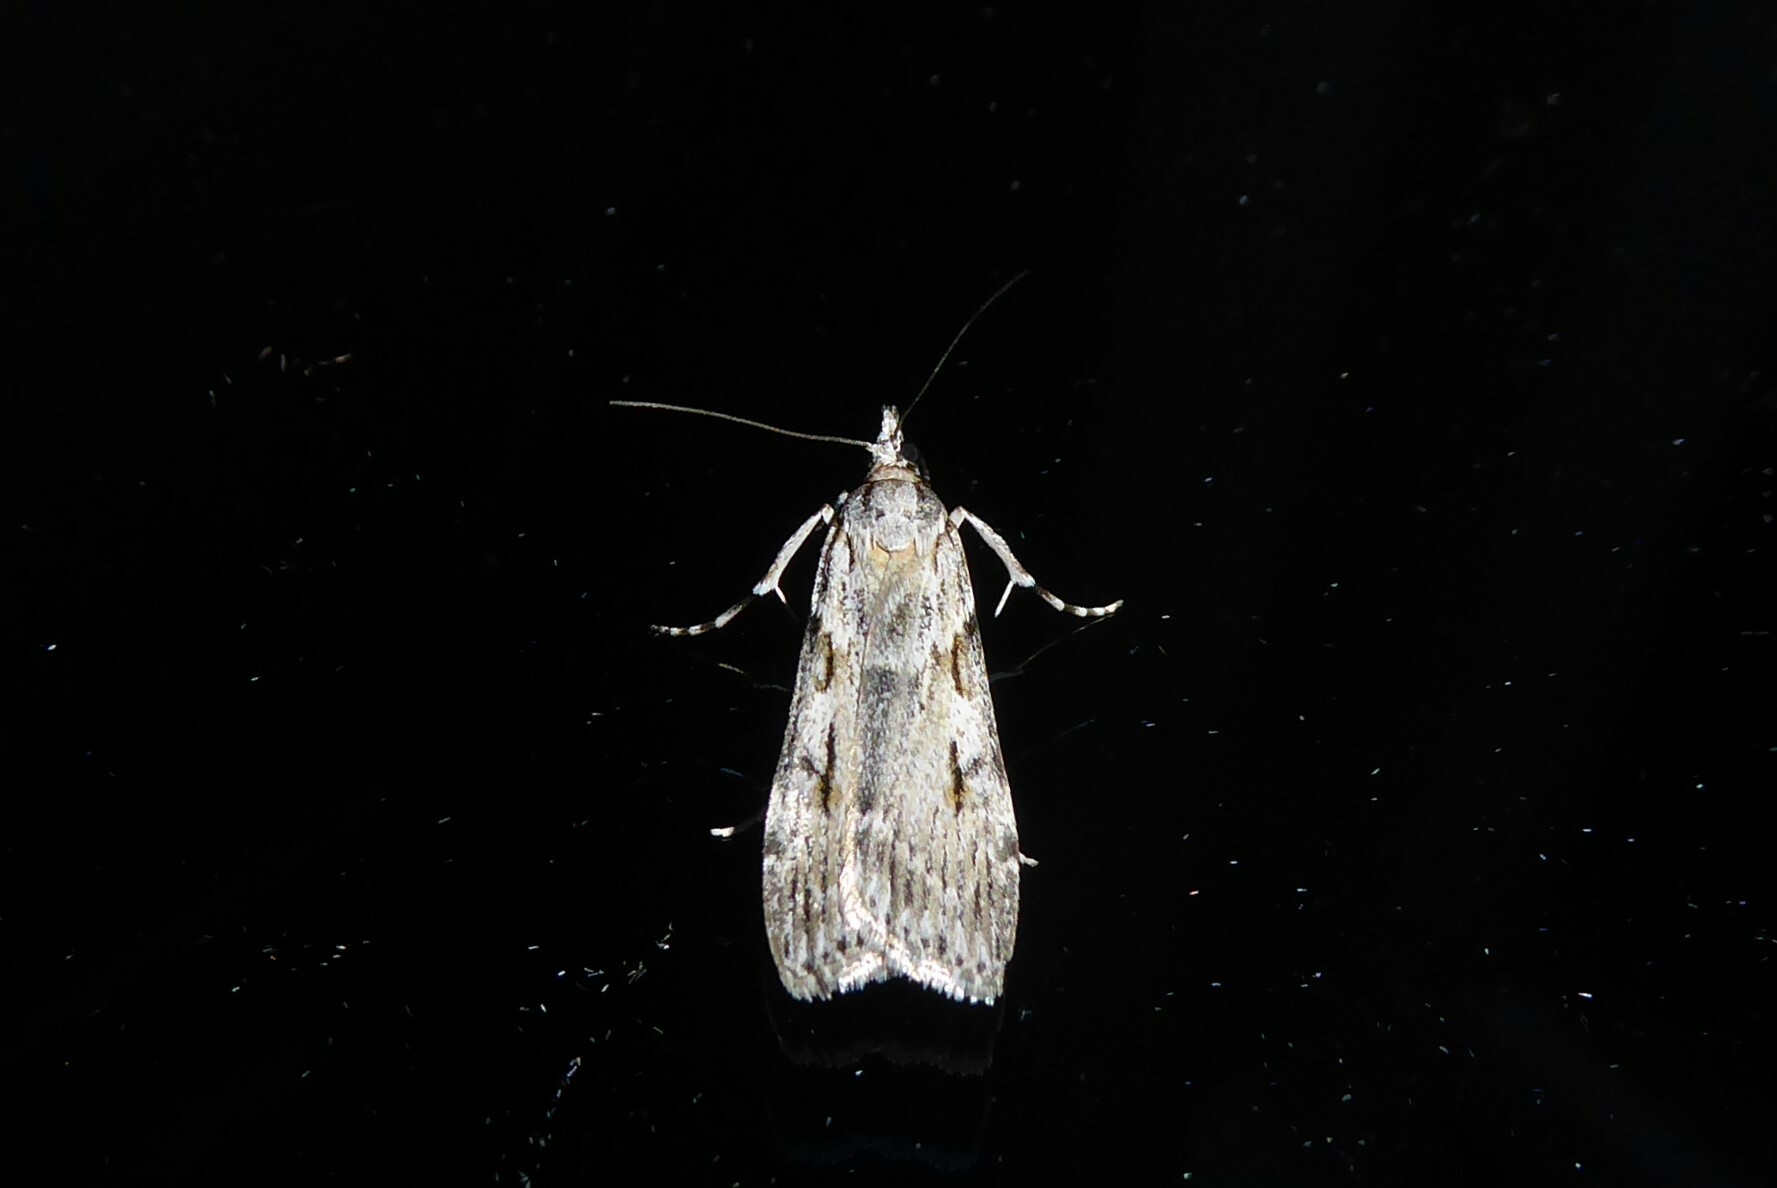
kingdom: Animalia
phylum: Arthropoda
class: Insecta
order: Lepidoptera
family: Crambidae
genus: Scoparia
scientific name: Scoparia halopis
